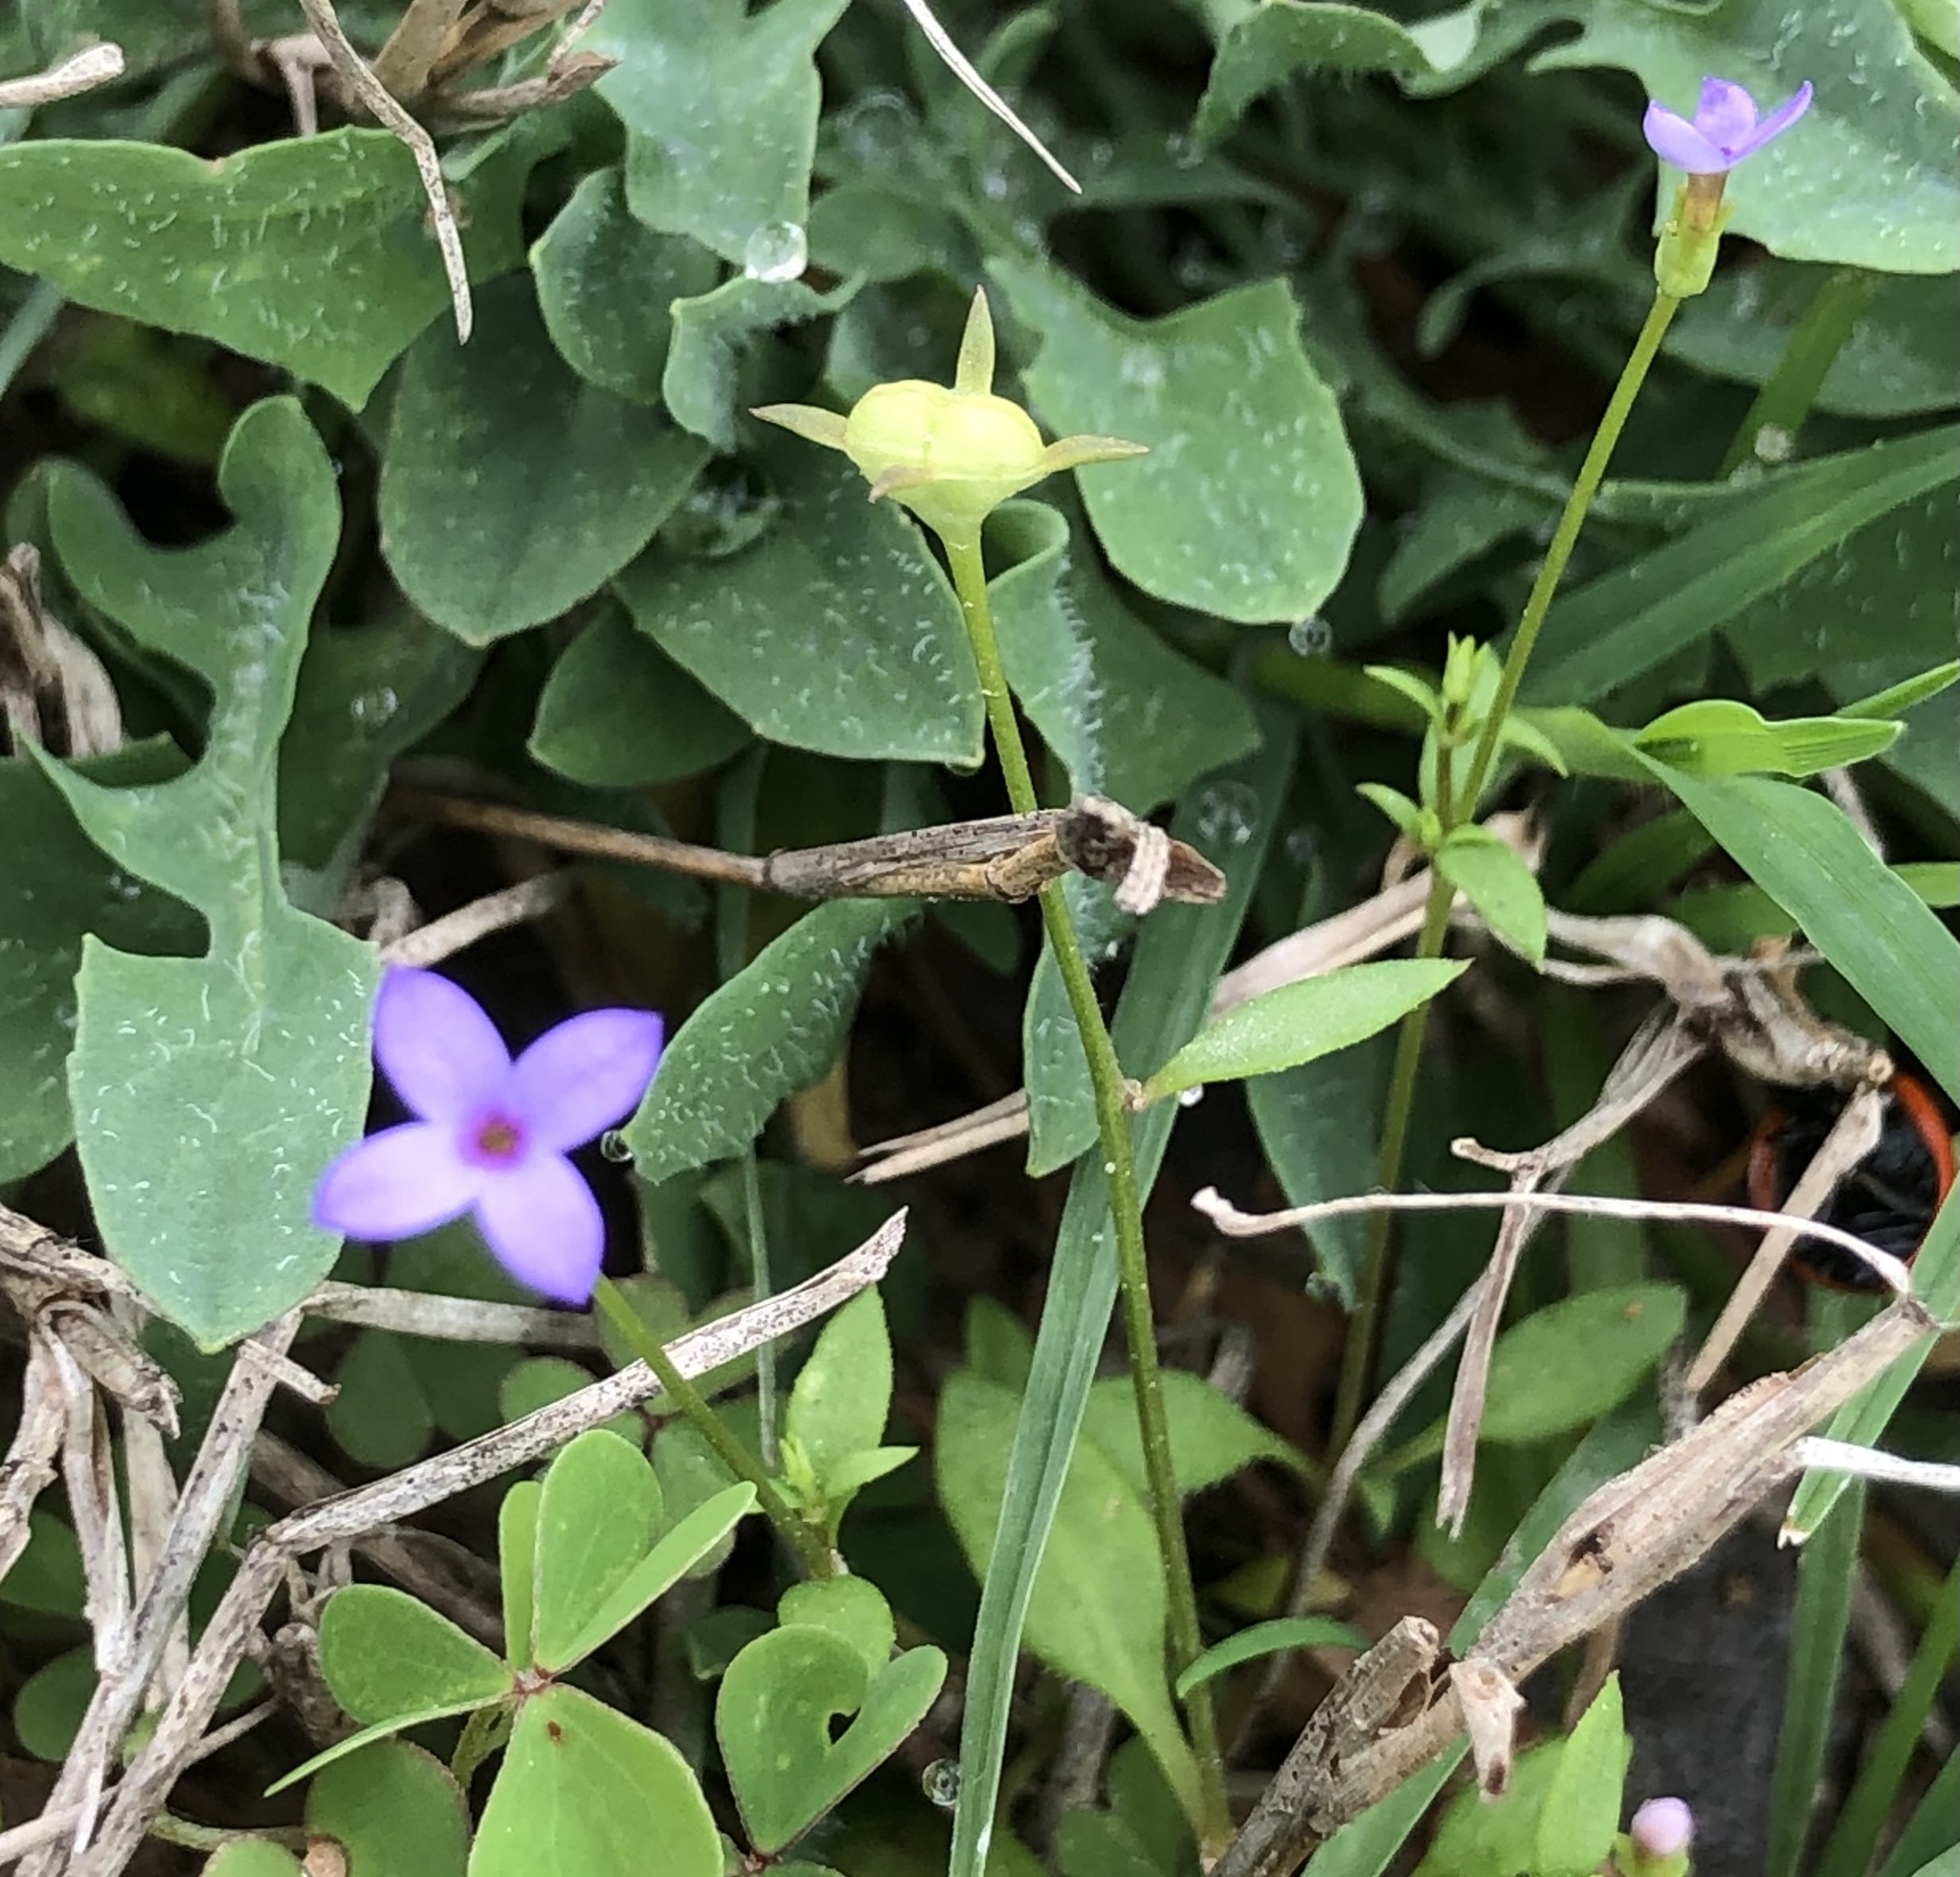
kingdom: Plantae
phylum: Tracheophyta
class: Magnoliopsida
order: Gentianales
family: Rubiaceae
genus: Houstonia
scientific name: Houstonia pusilla
